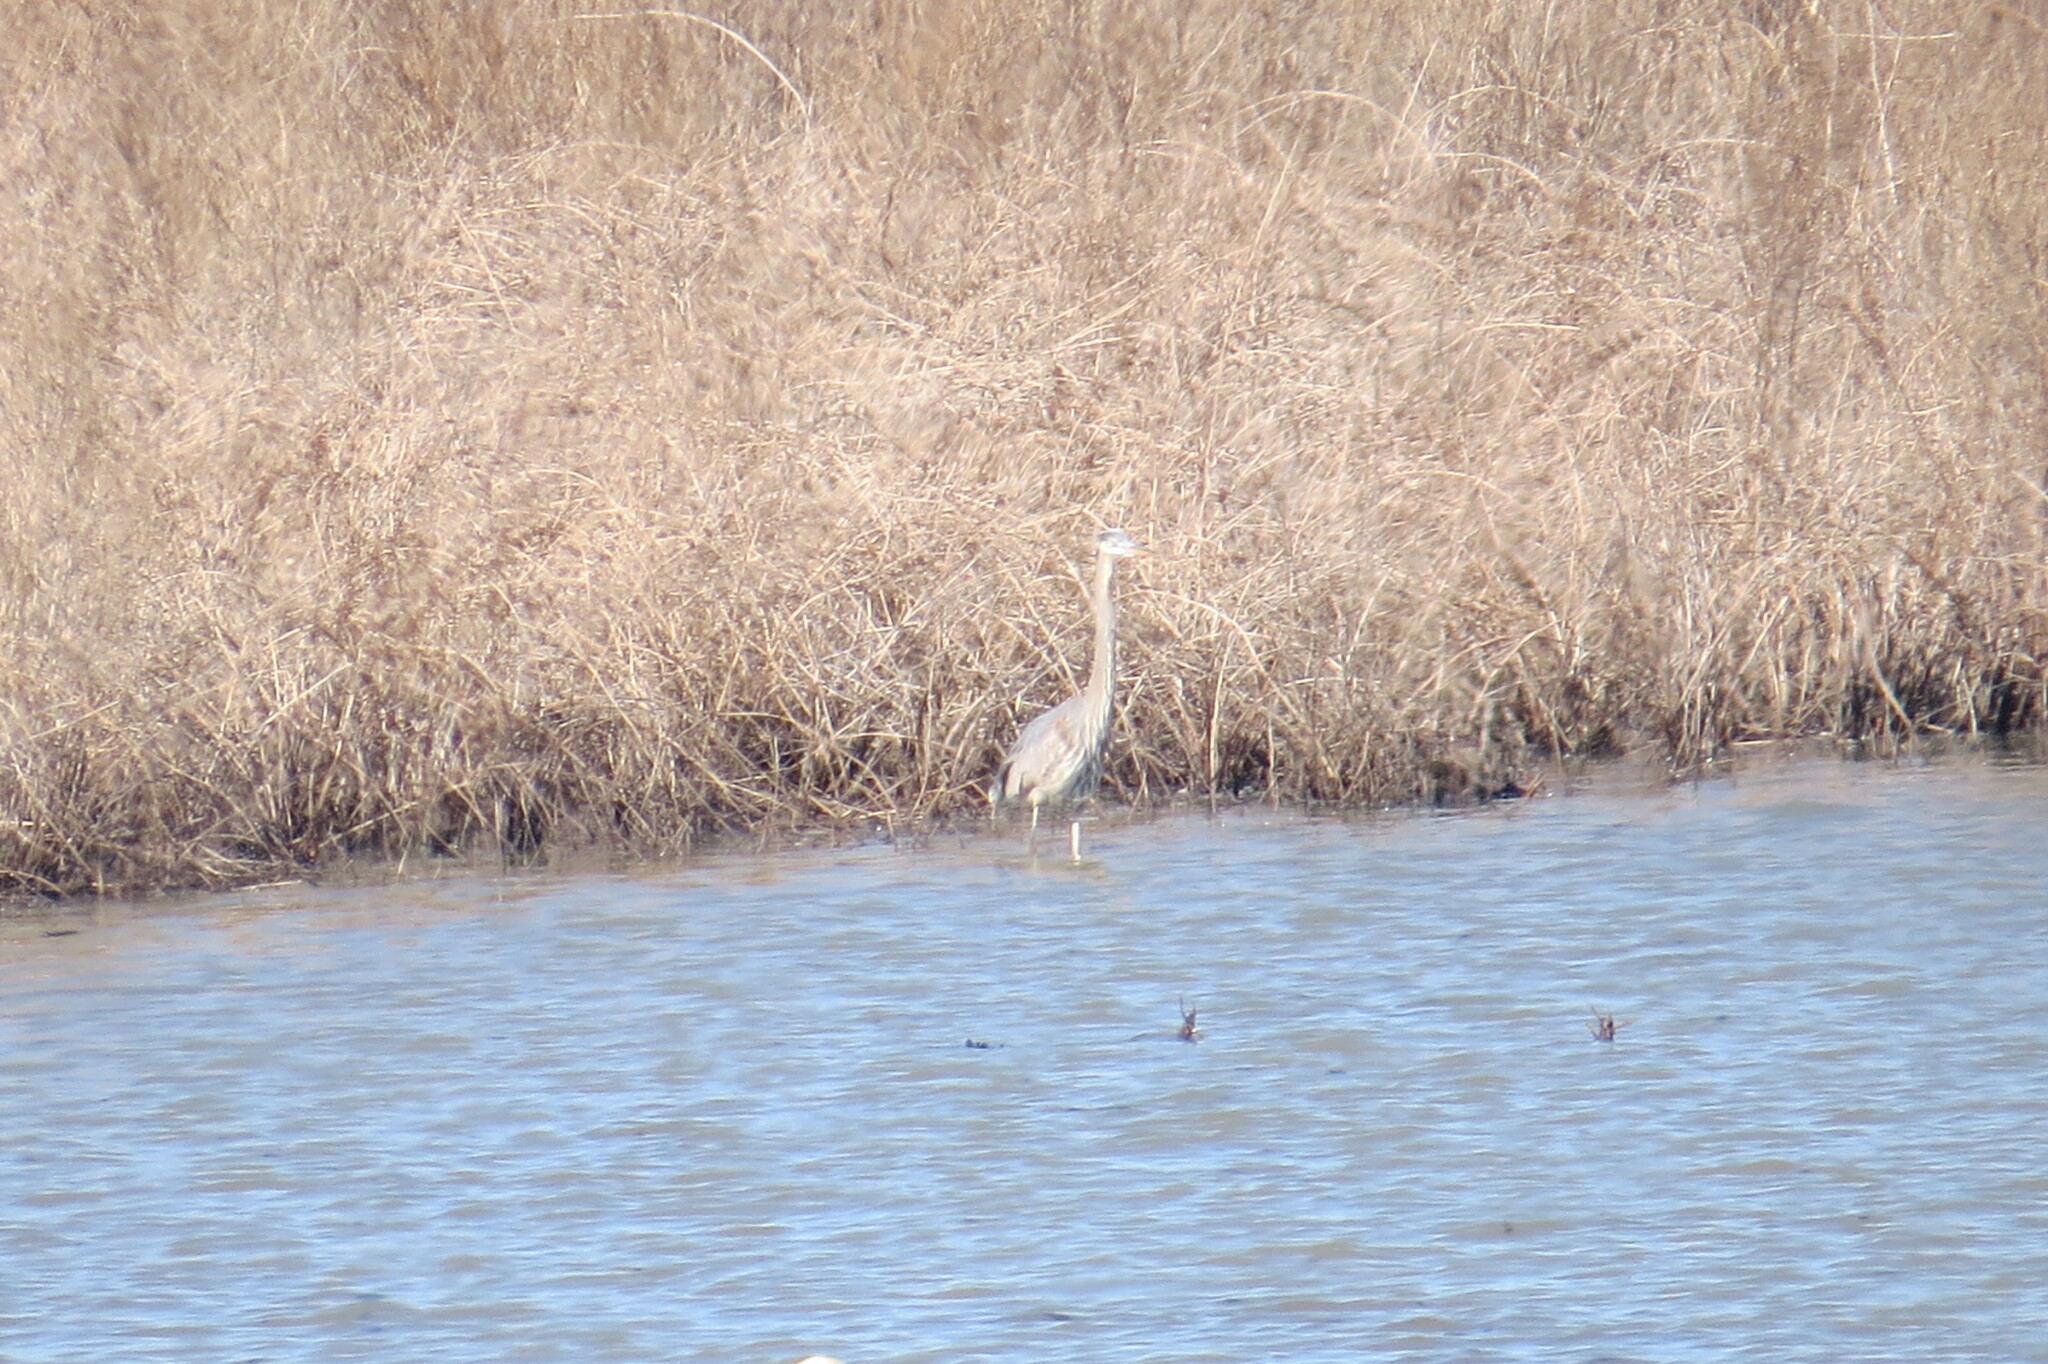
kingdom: Animalia
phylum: Chordata
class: Aves
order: Pelecaniformes
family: Ardeidae
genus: Ardea
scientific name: Ardea herodias
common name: Great blue heron
